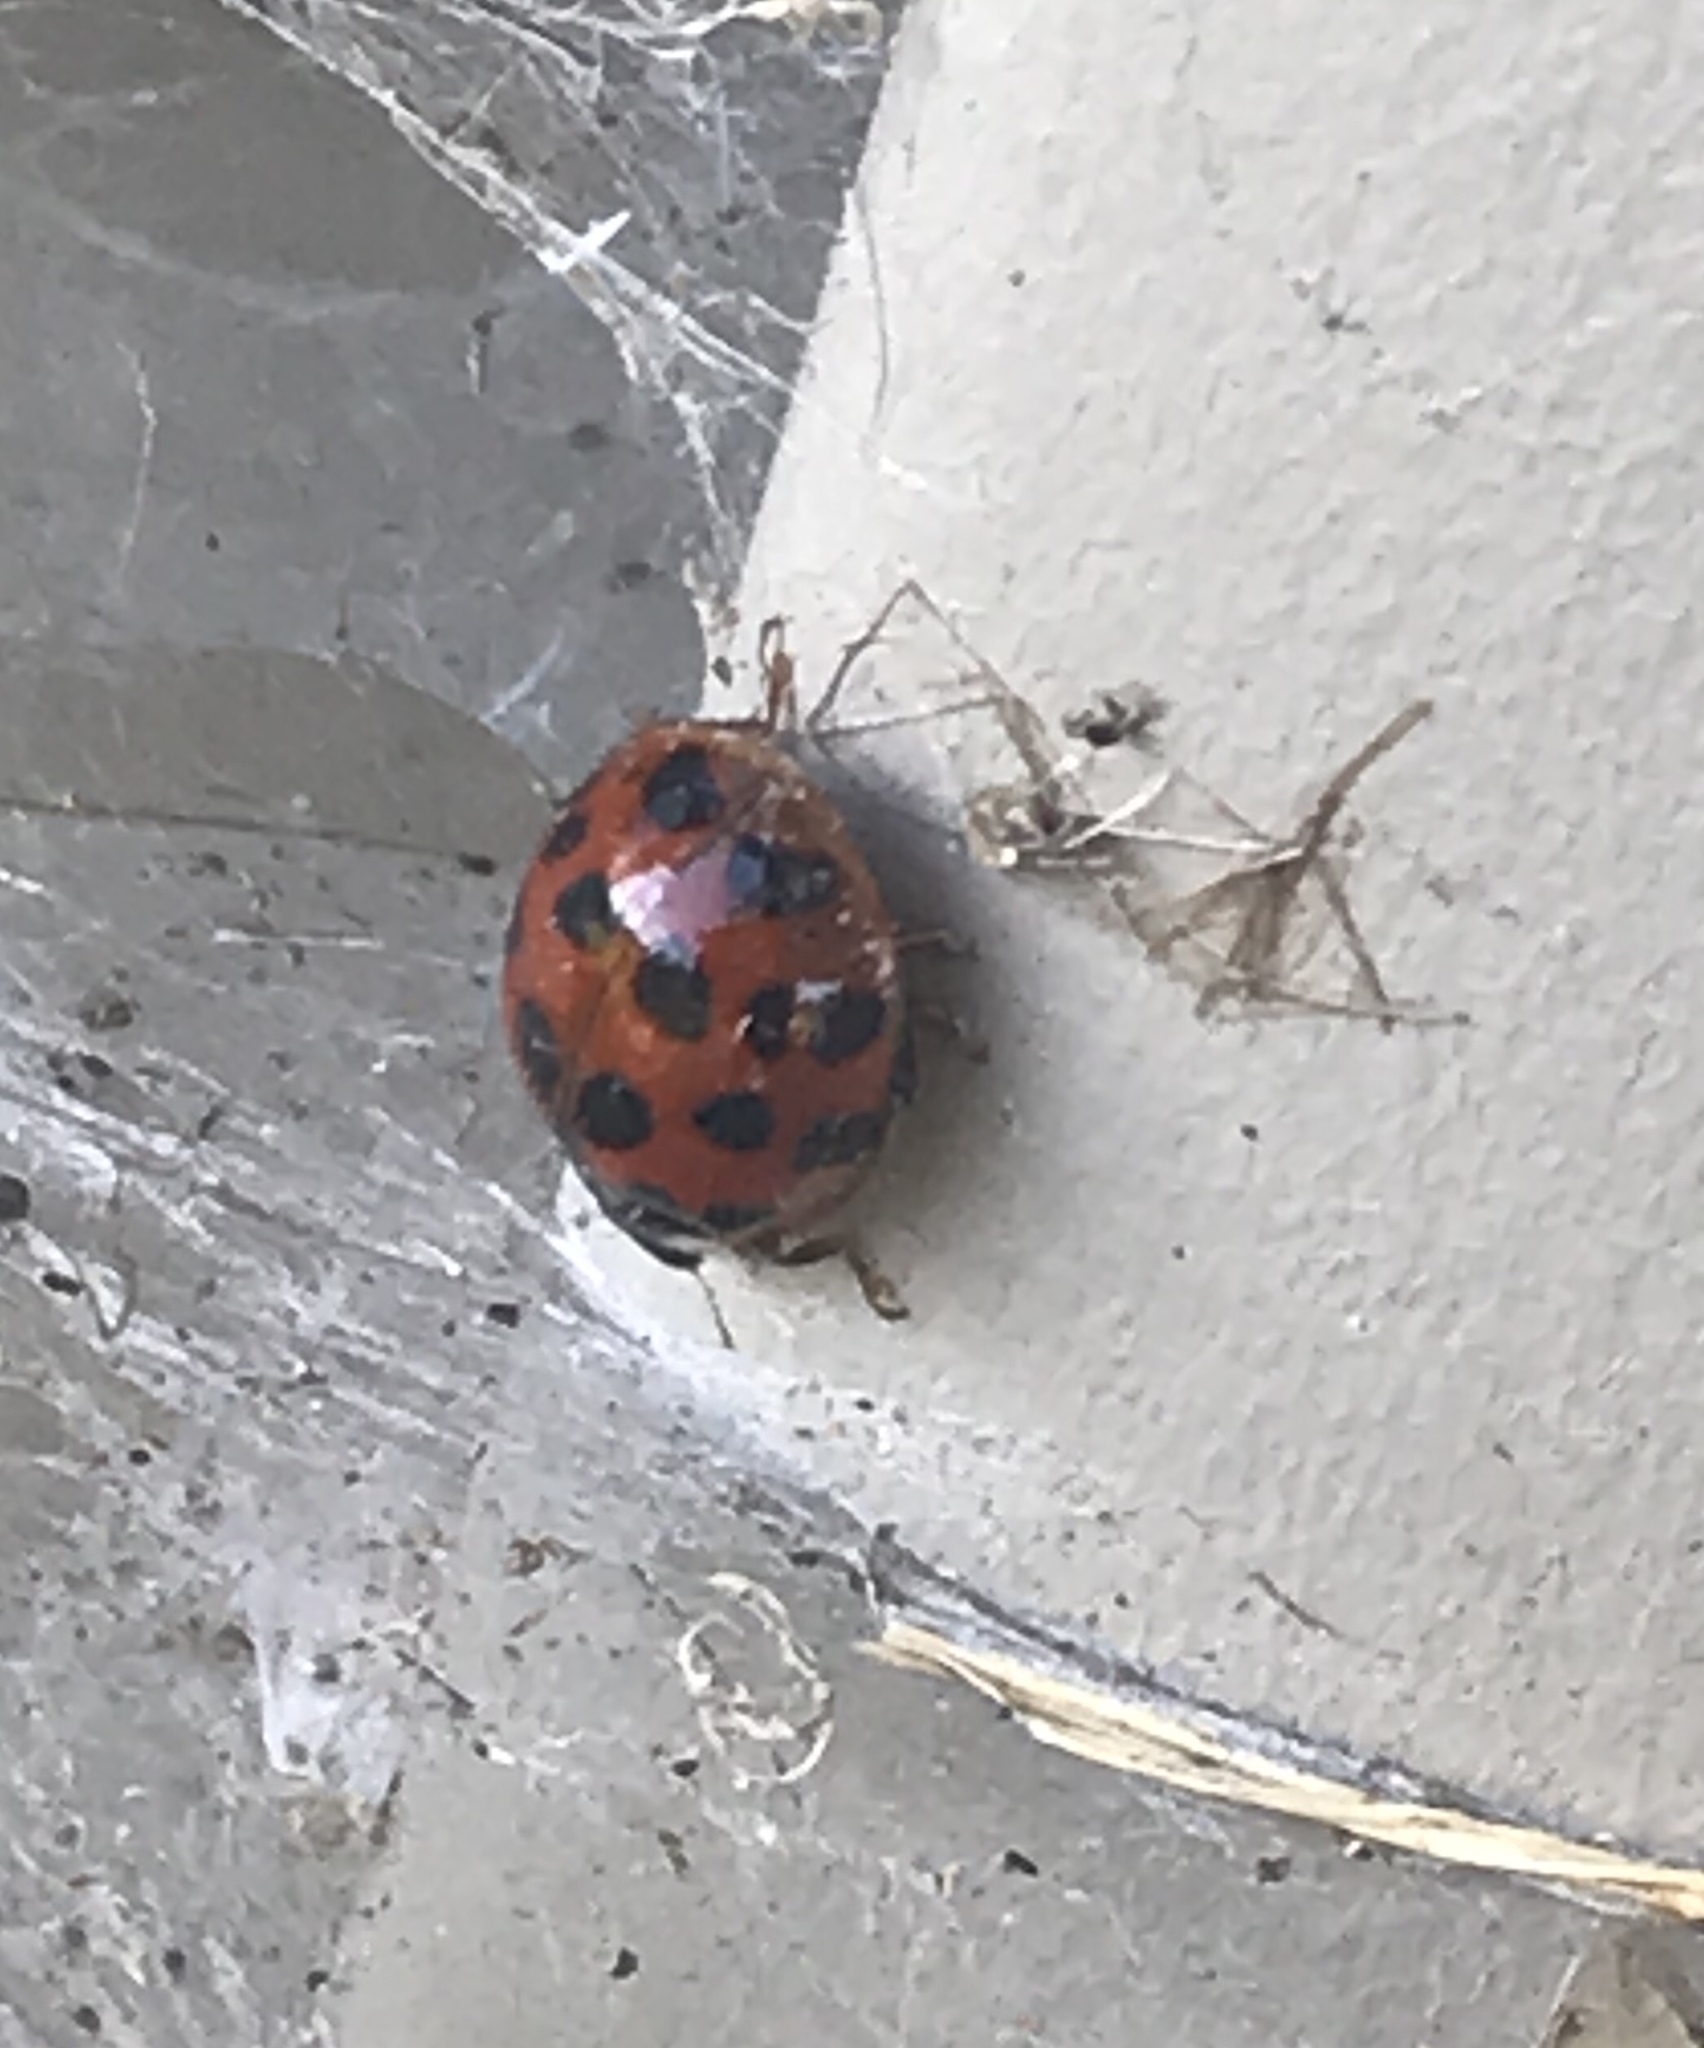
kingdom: Animalia
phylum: Arthropoda
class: Insecta
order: Coleoptera
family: Coccinellidae
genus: Harmonia
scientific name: Harmonia axyridis
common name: Harlequin ladybird
